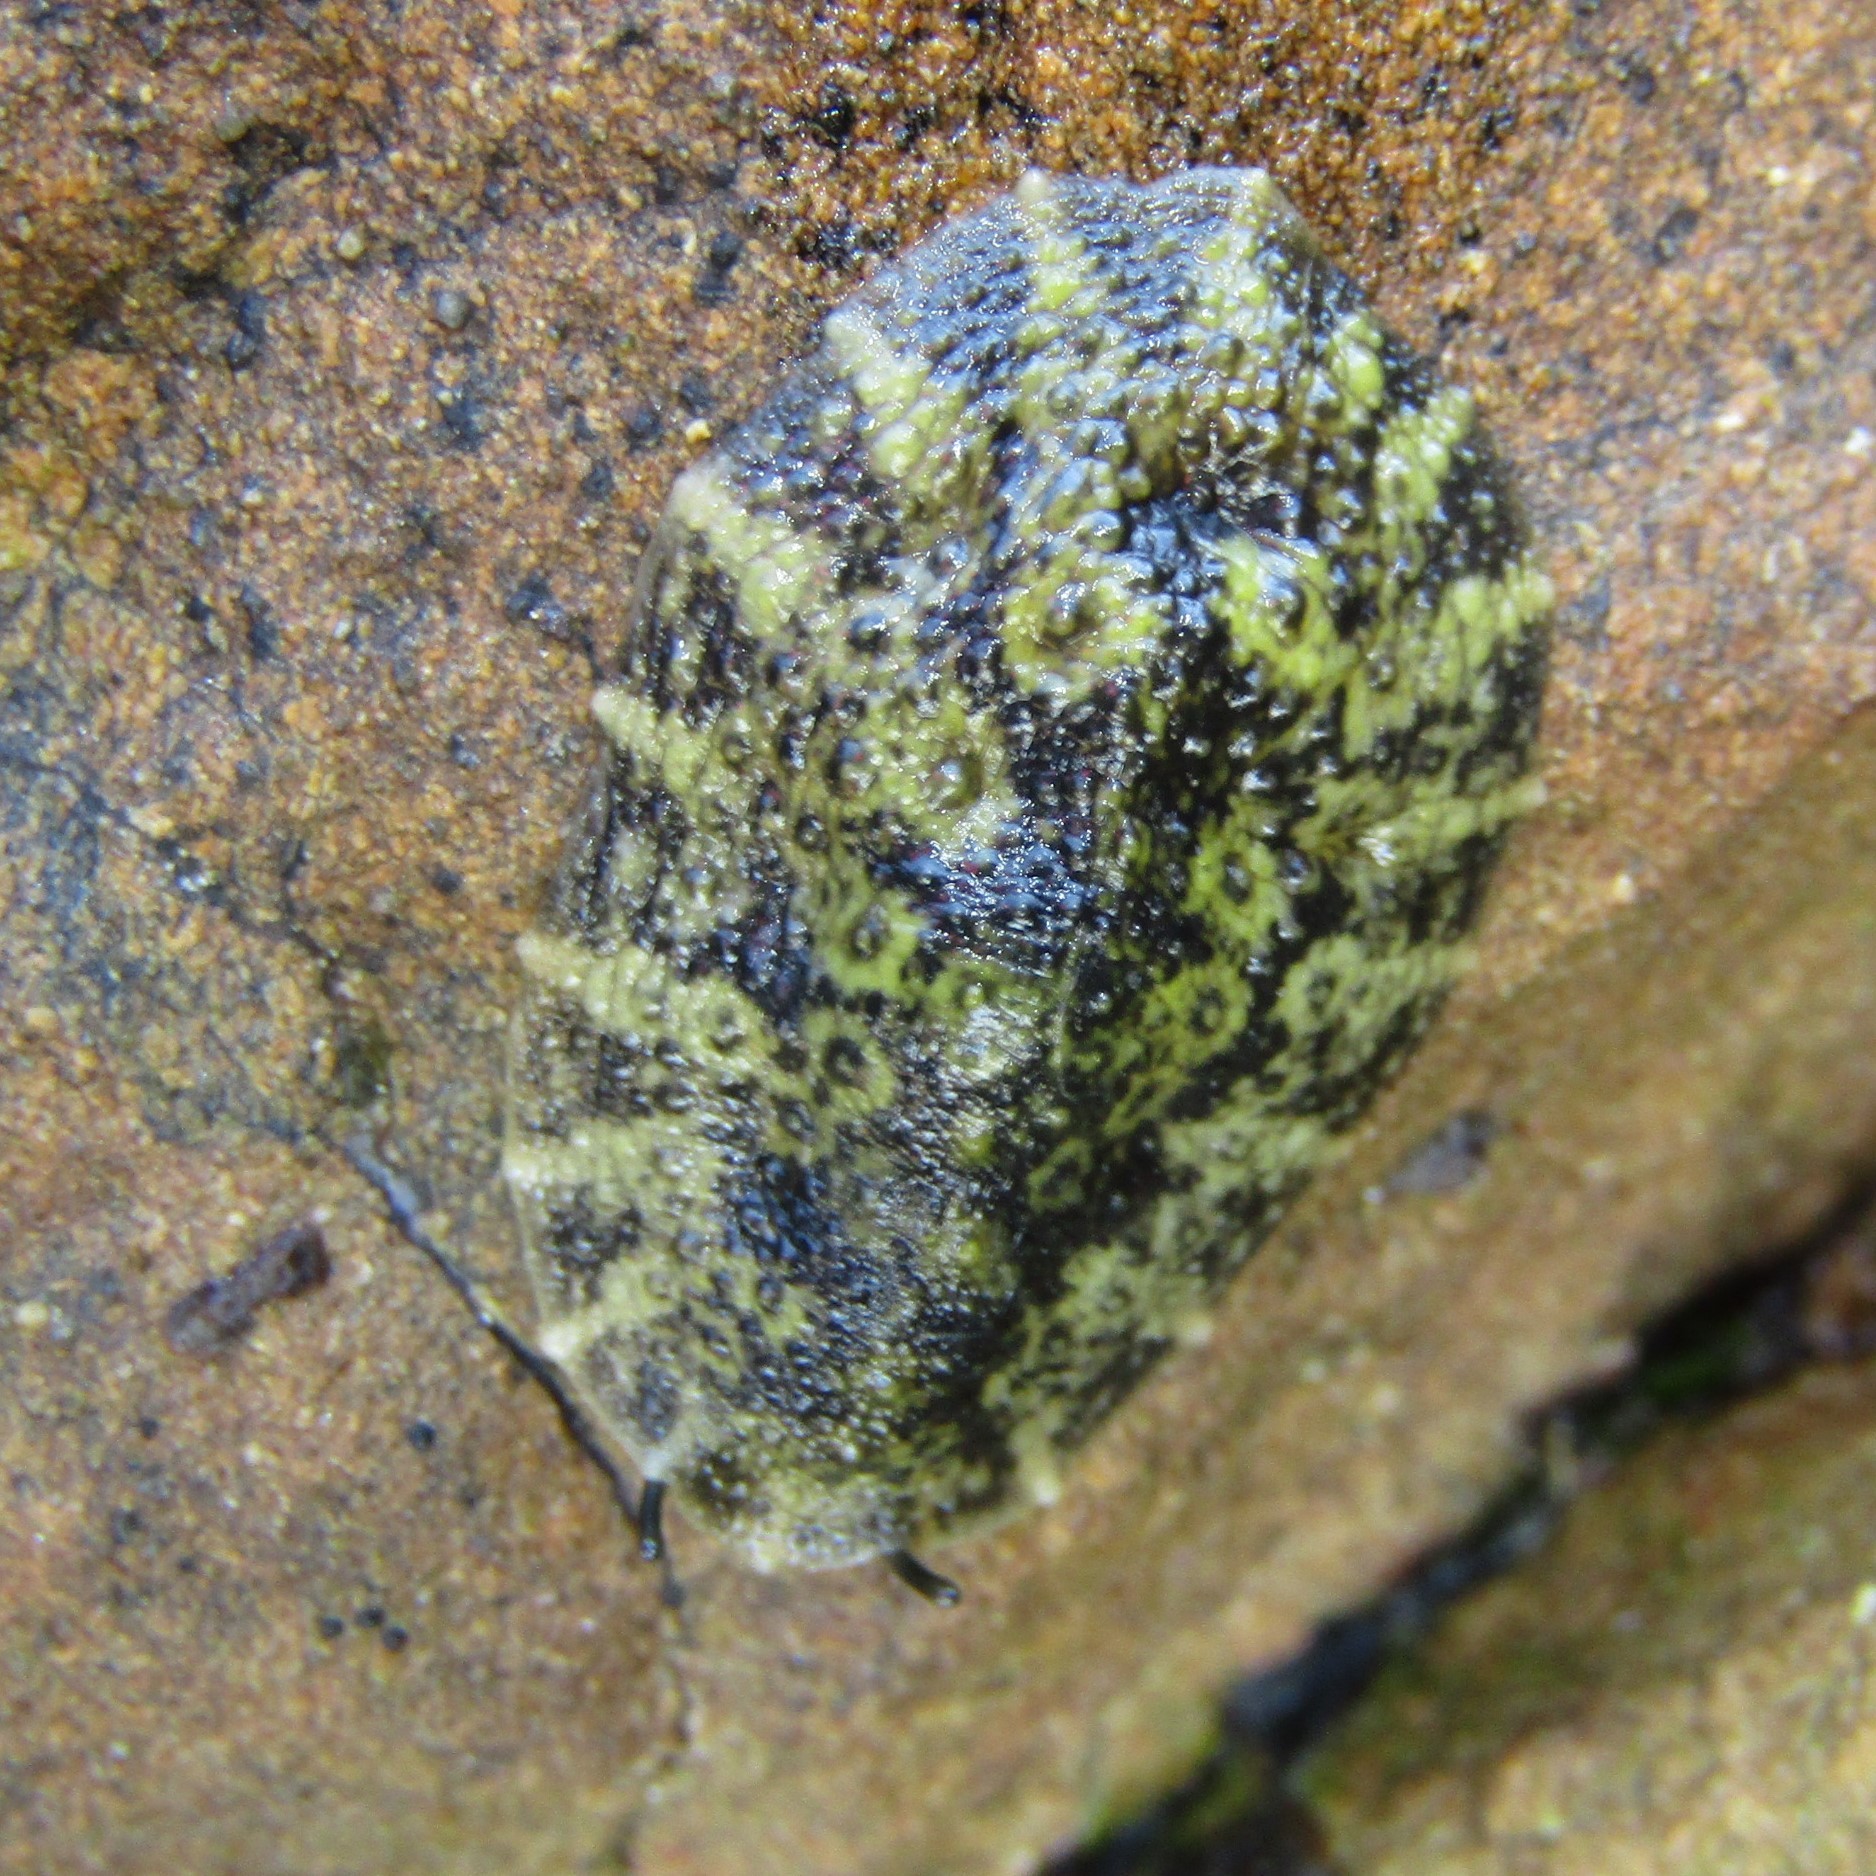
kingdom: Animalia
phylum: Mollusca
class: Gastropoda
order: Systellommatophora
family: Onchidiidae
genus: Onchidella
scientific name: Onchidella nigricans
